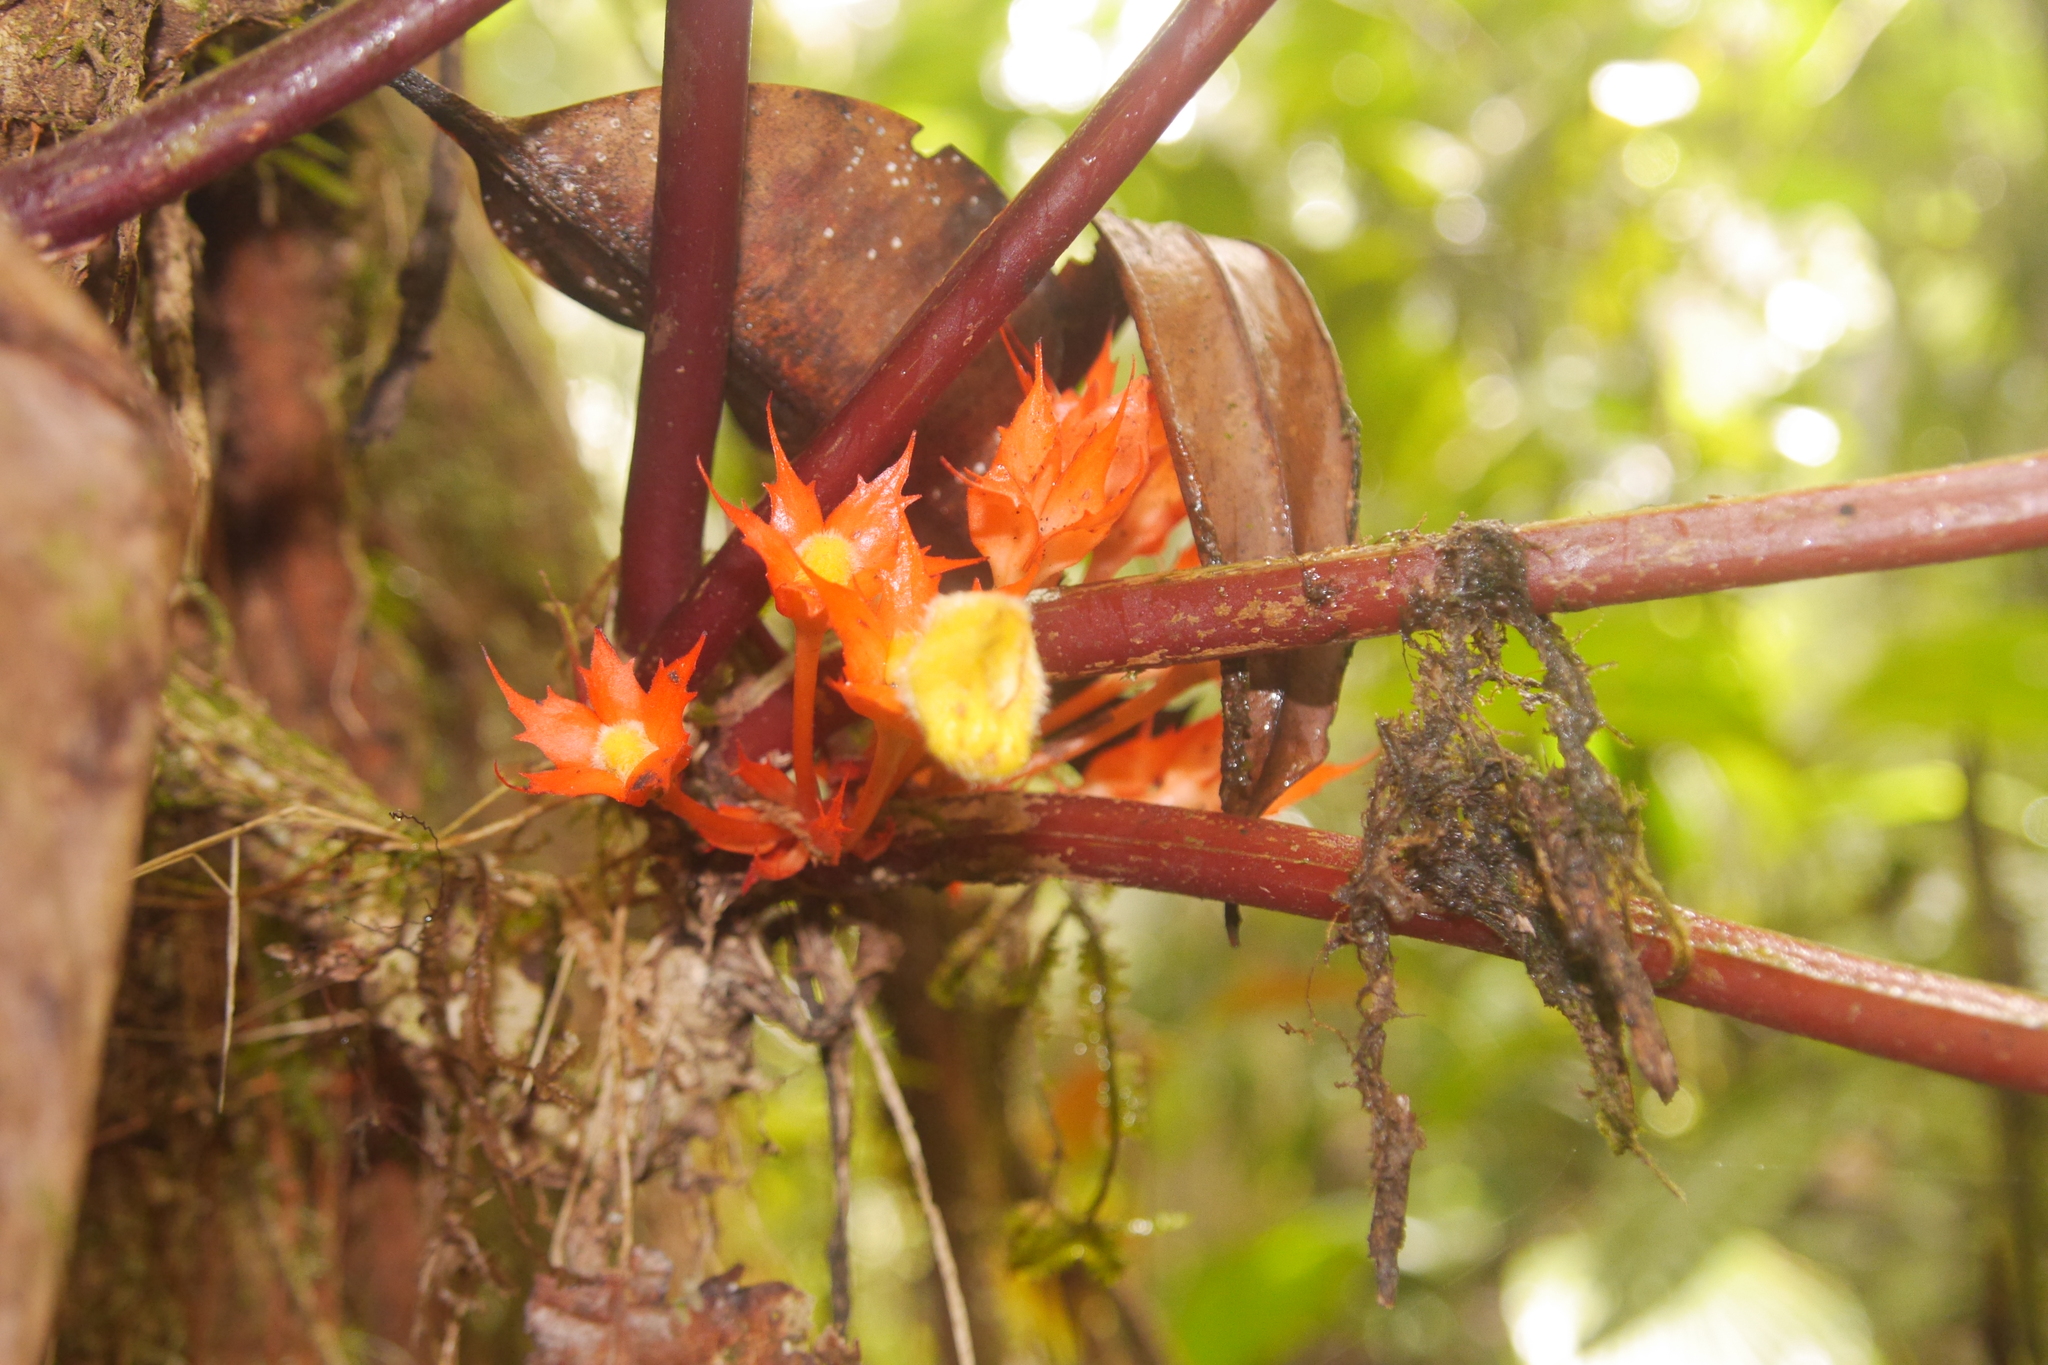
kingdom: Plantae
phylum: Tracheophyta
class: Magnoliopsida
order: Lamiales
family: Gesneriaceae
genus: Trichodrymonia
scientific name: Trichodrymonia binata
